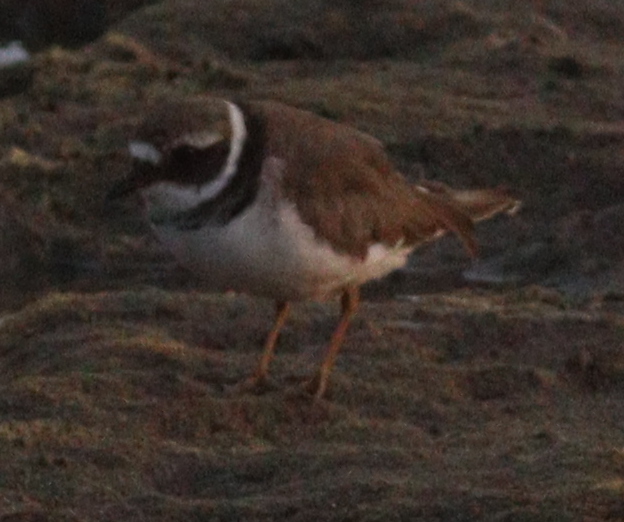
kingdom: Animalia
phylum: Chordata
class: Aves
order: Charadriiformes
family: Charadriidae
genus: Charadrius
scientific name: Charadrius hiaticula
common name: Common ringed plover
